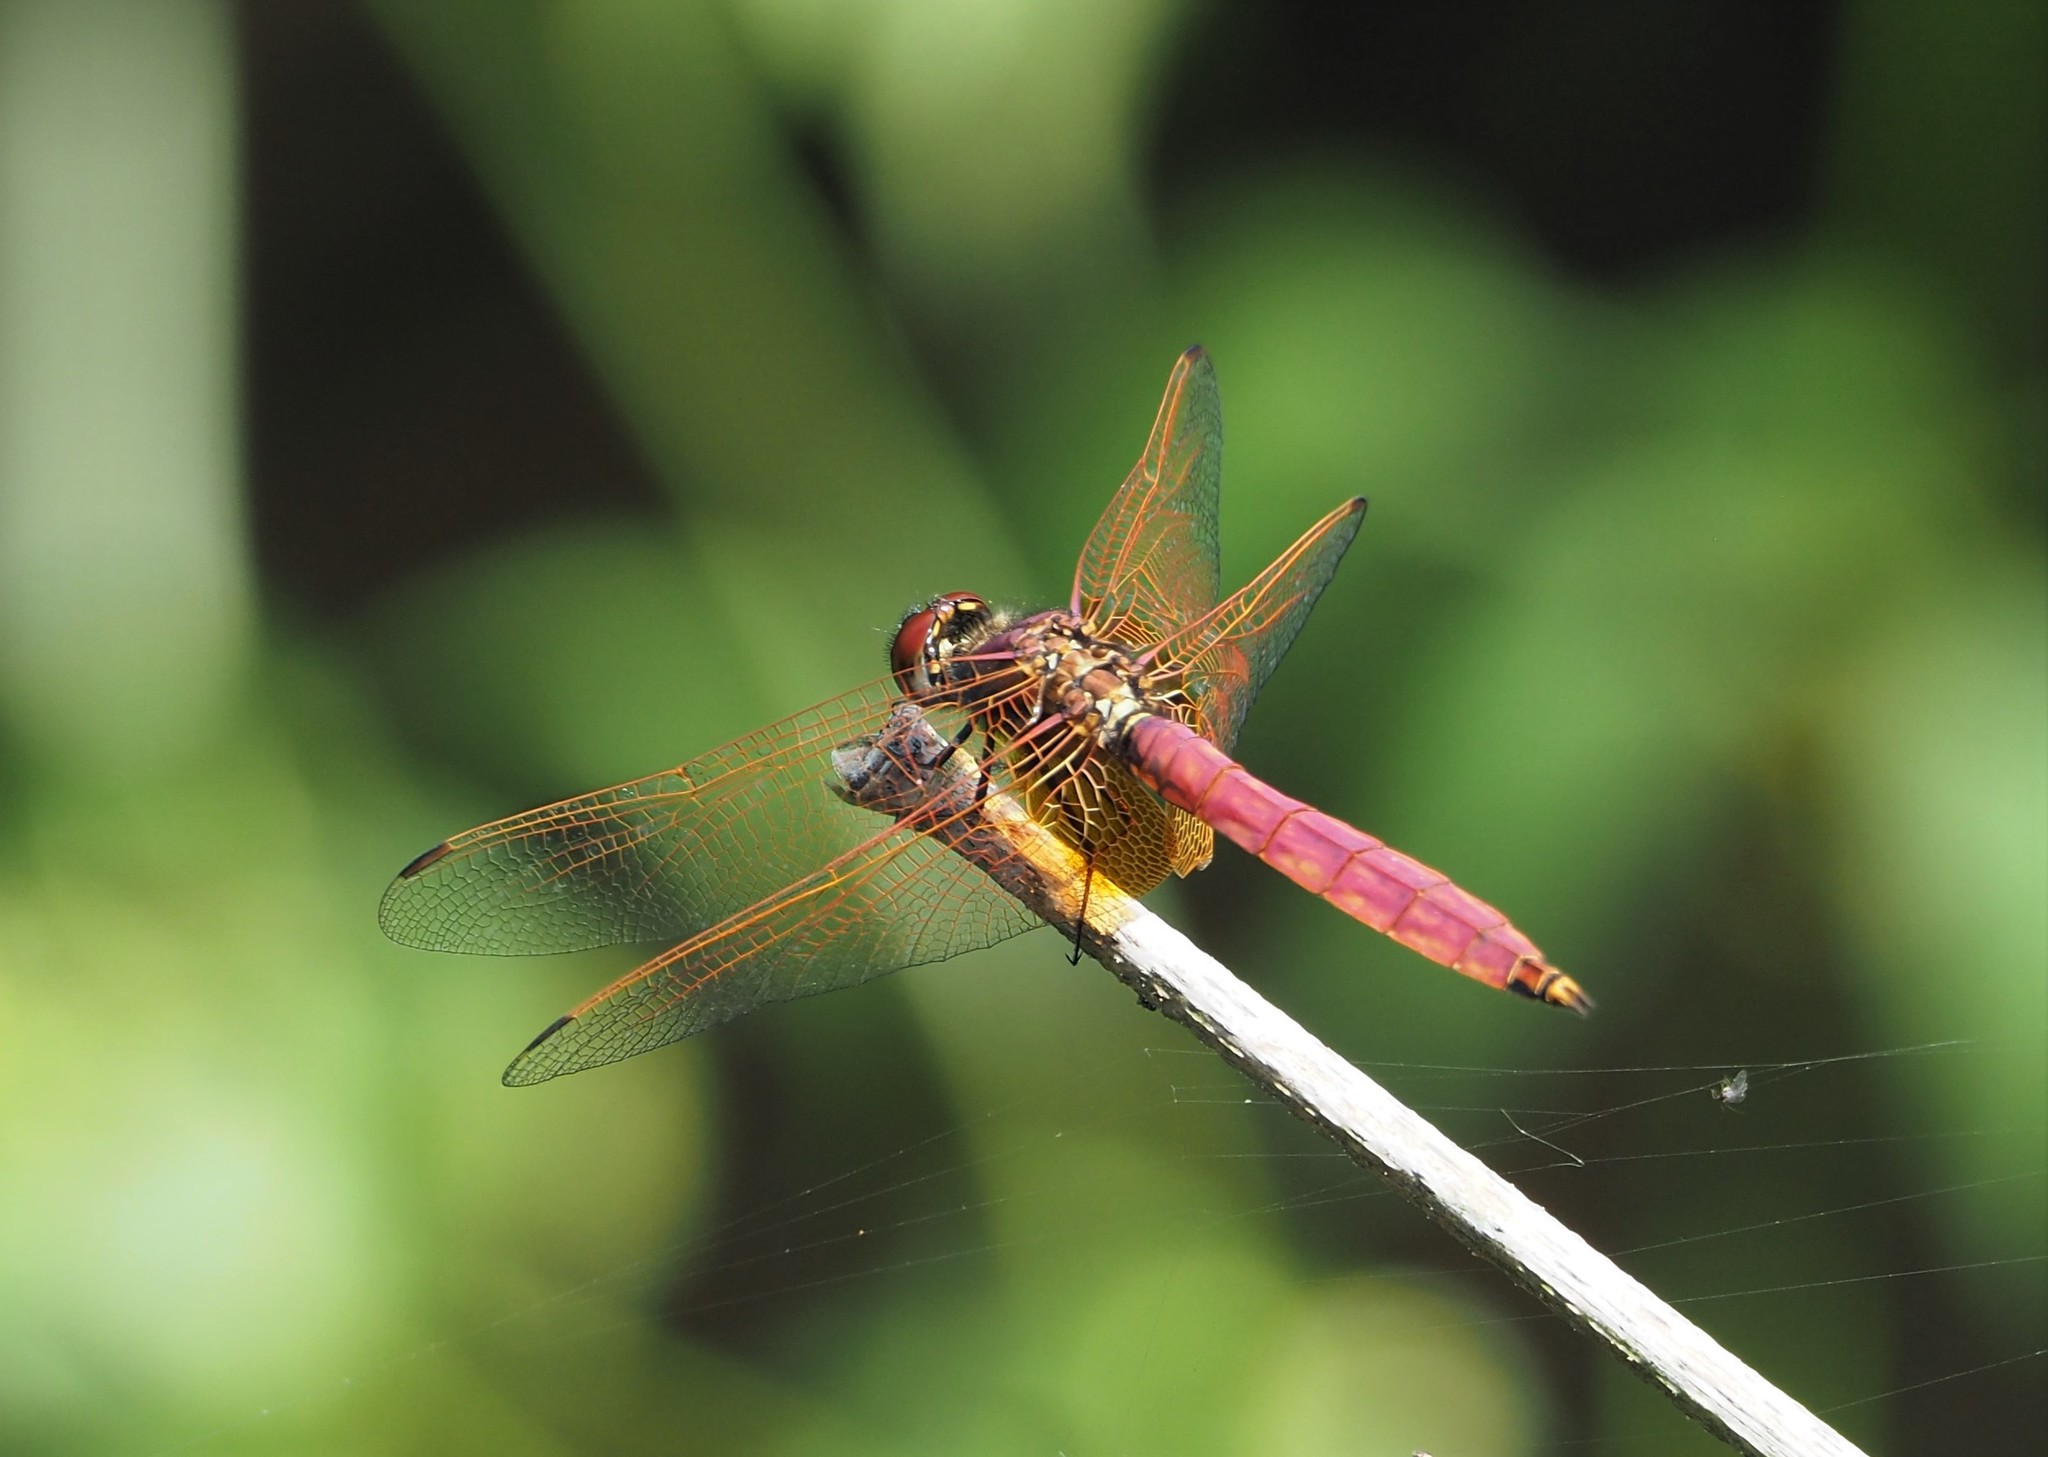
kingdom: Animalia
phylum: Arthropoda
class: Insecta
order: Odonata
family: Libellulidae
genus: Trithemis
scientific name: Trithemis aurora
